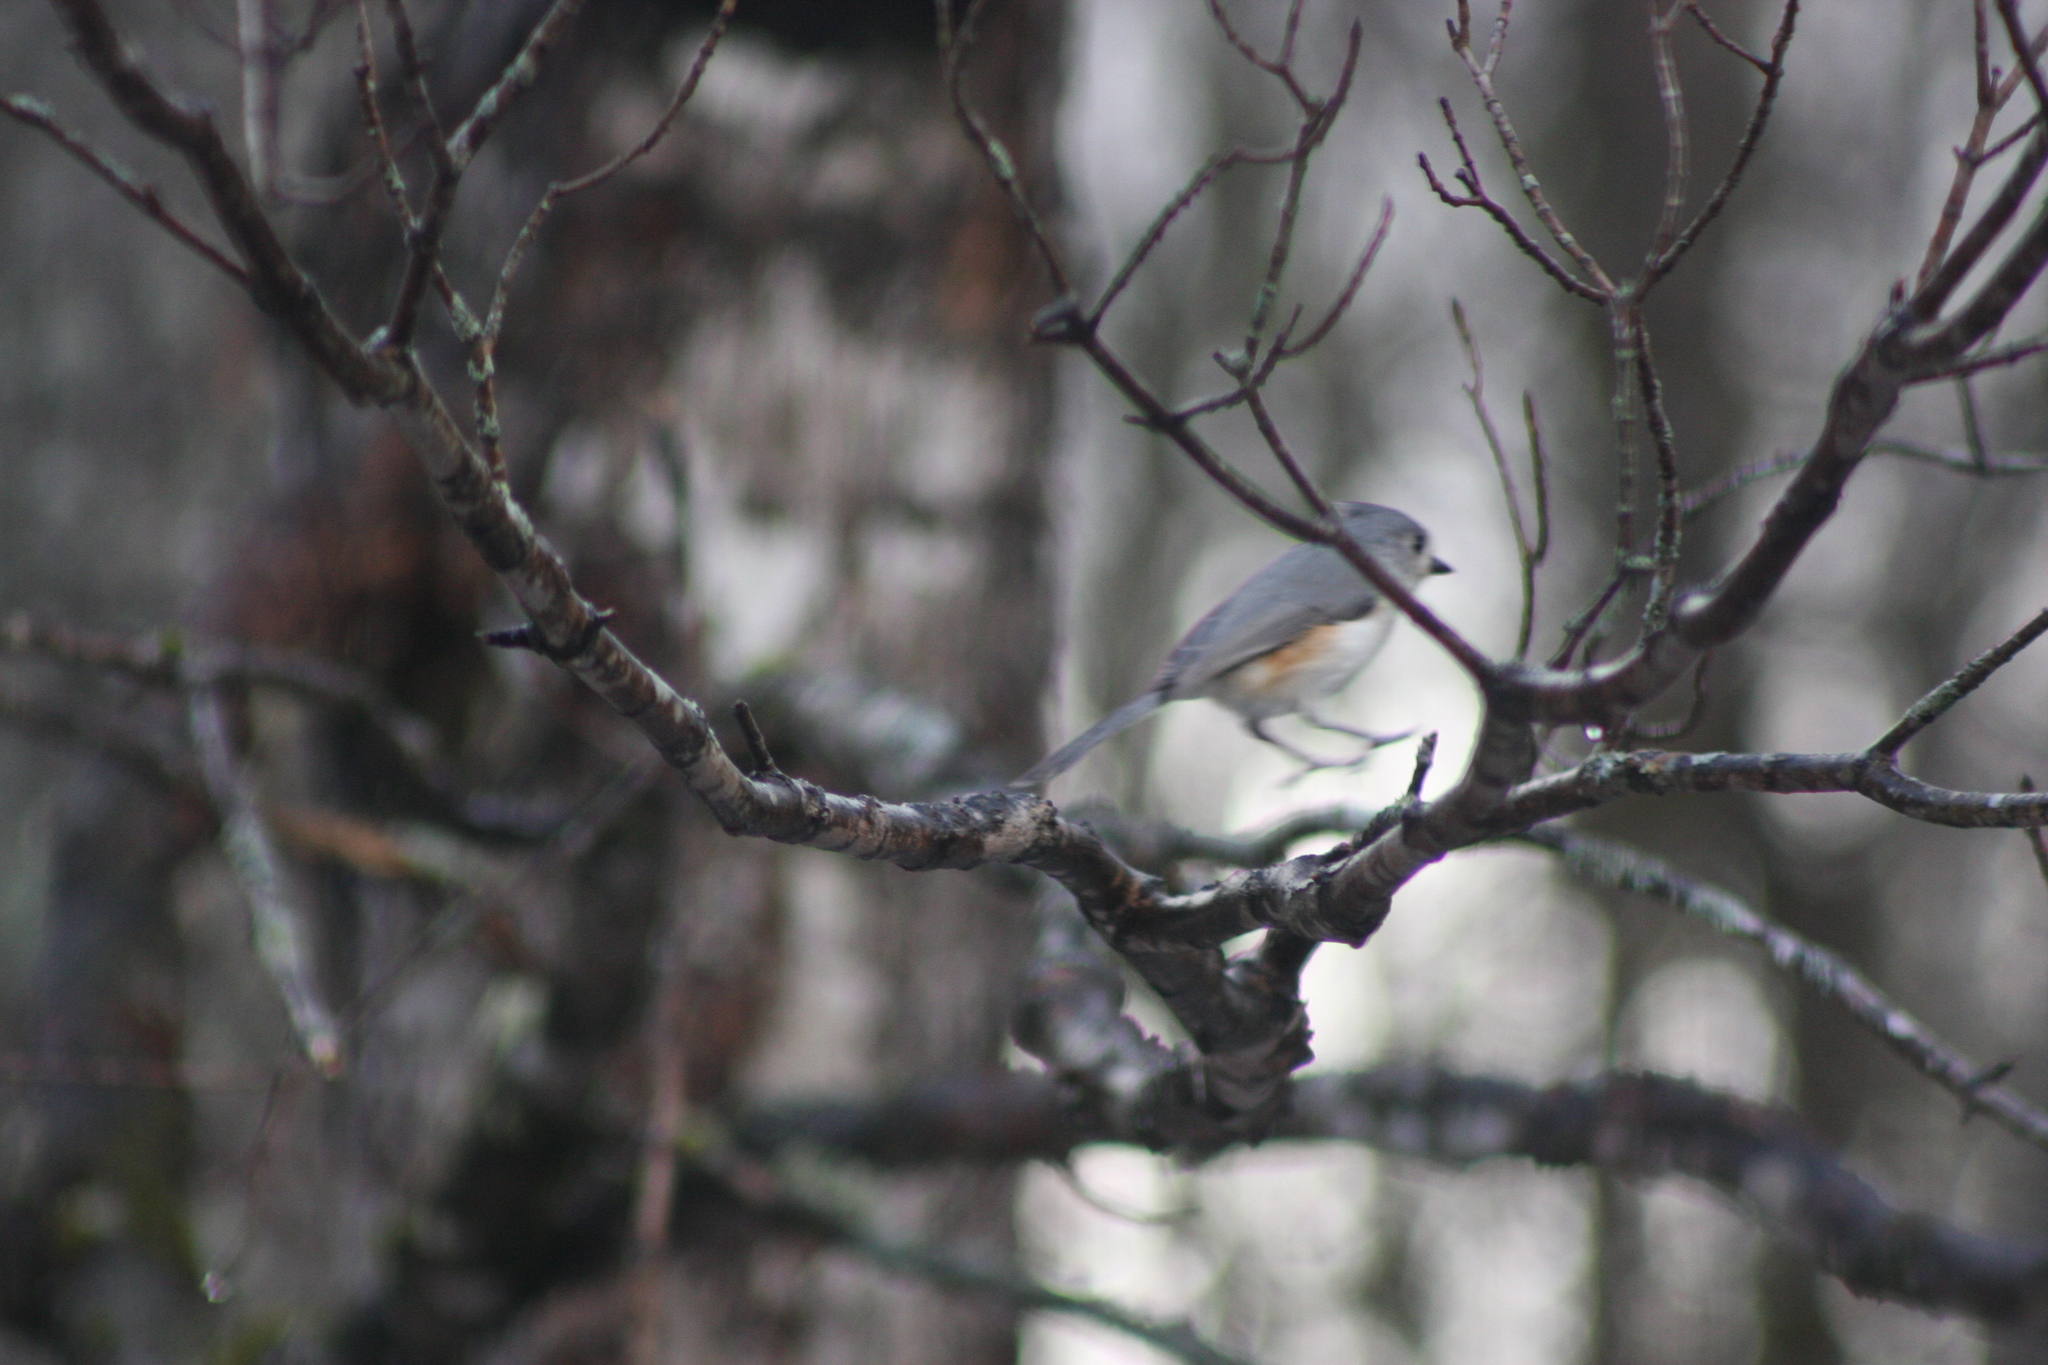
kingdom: Animalia
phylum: Chordata
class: Aves
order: Passeriformes
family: Paridae
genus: Baeolophus
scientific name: Baeolophus bicolor
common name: Tufted titmouse
